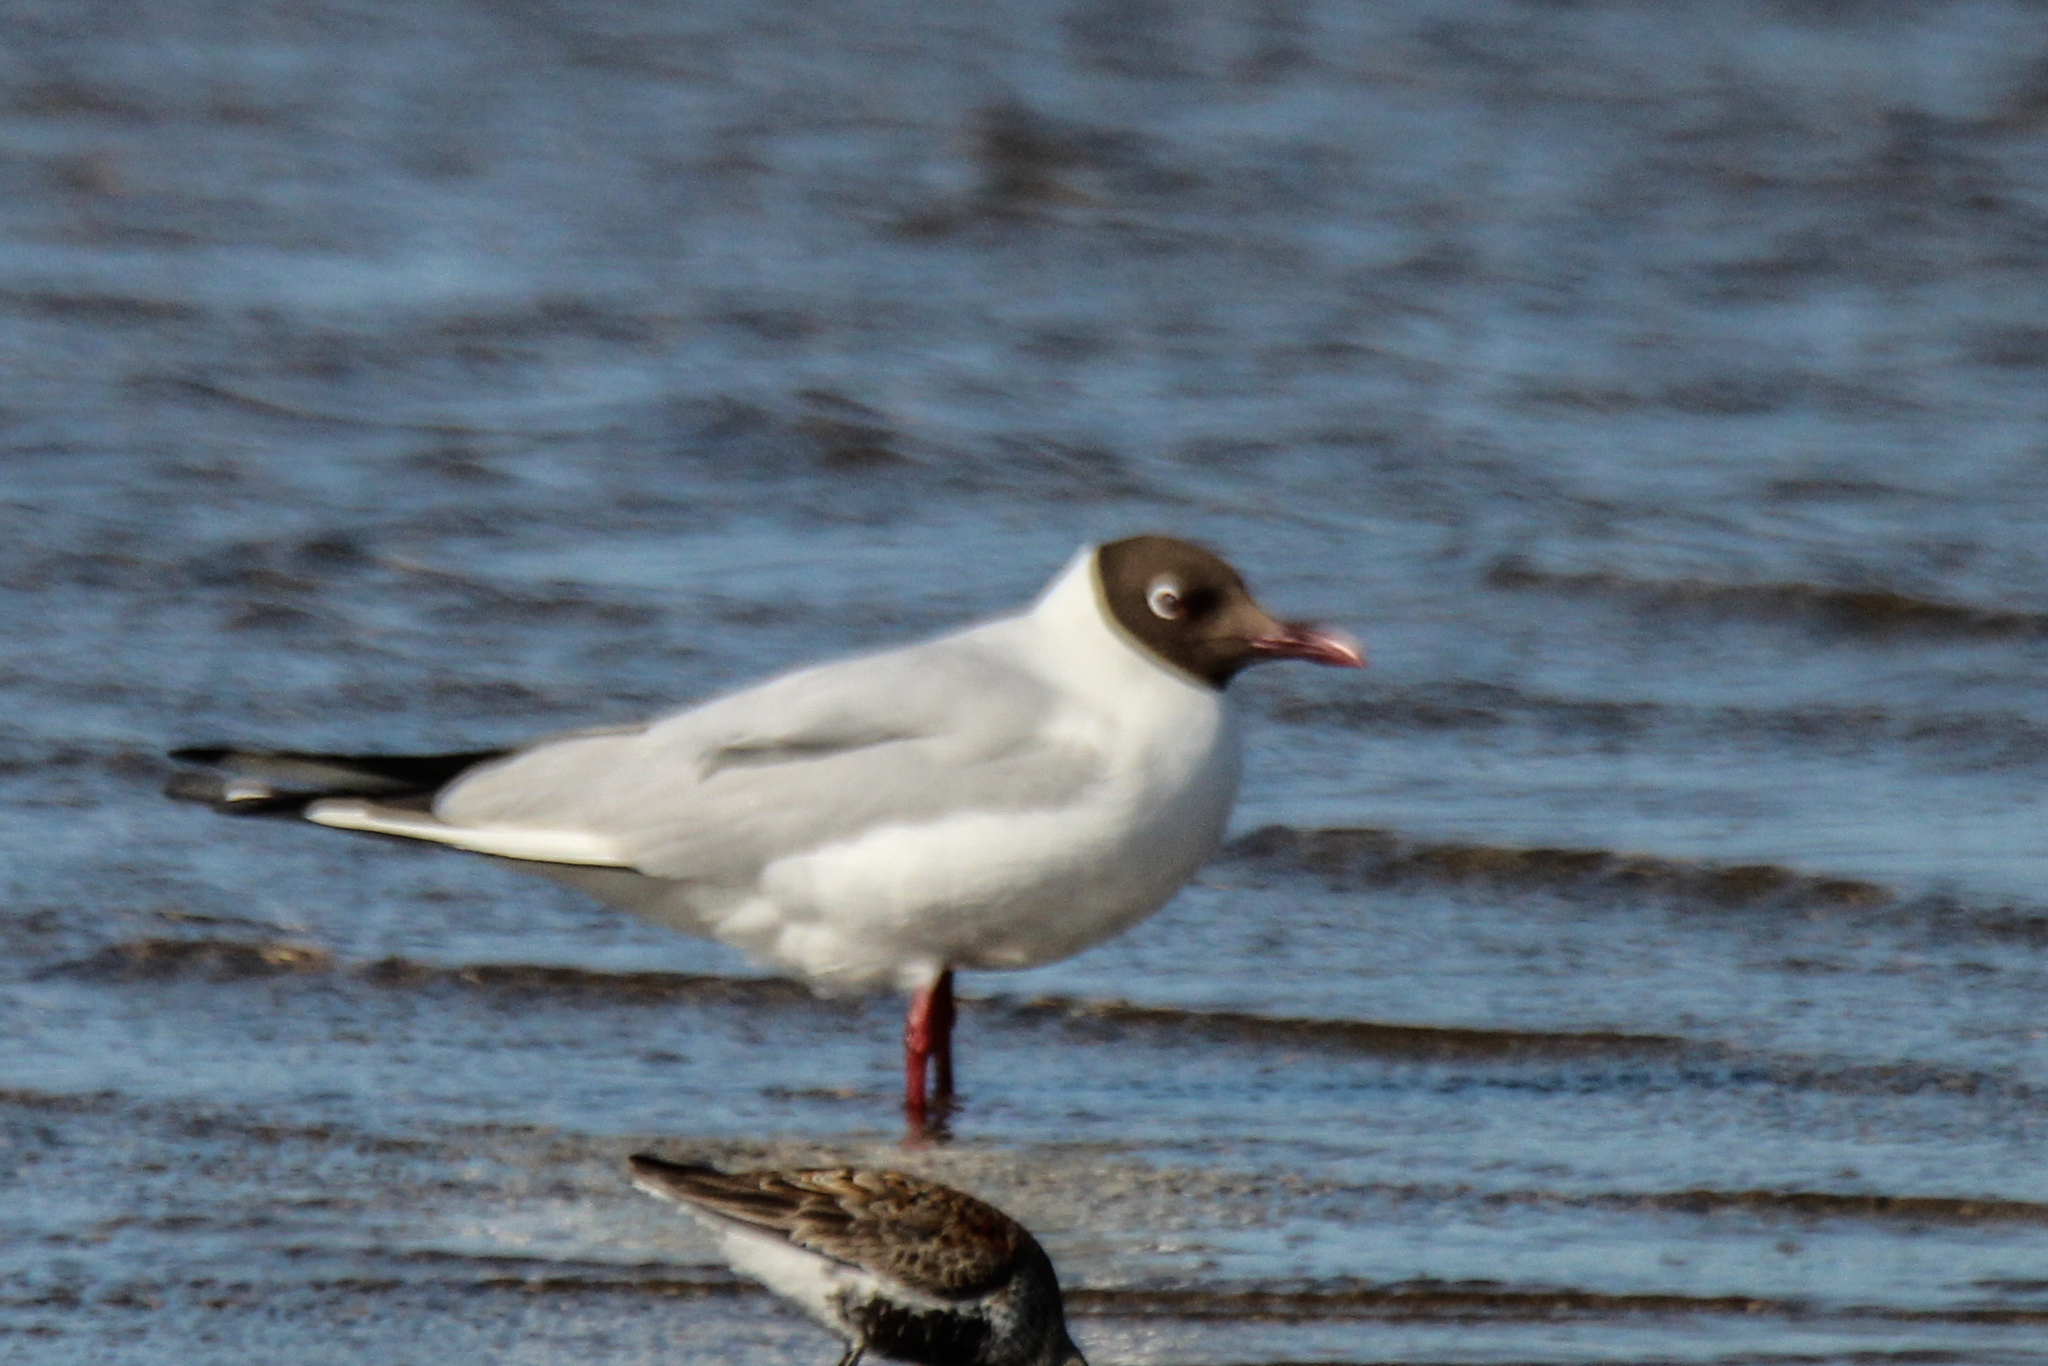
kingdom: Animalia
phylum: Chordata
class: Aves
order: Charadriiformes
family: Laridae
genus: Chroicocephalus
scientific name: Chroicocephalus ridibundus
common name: Black-headed gull
